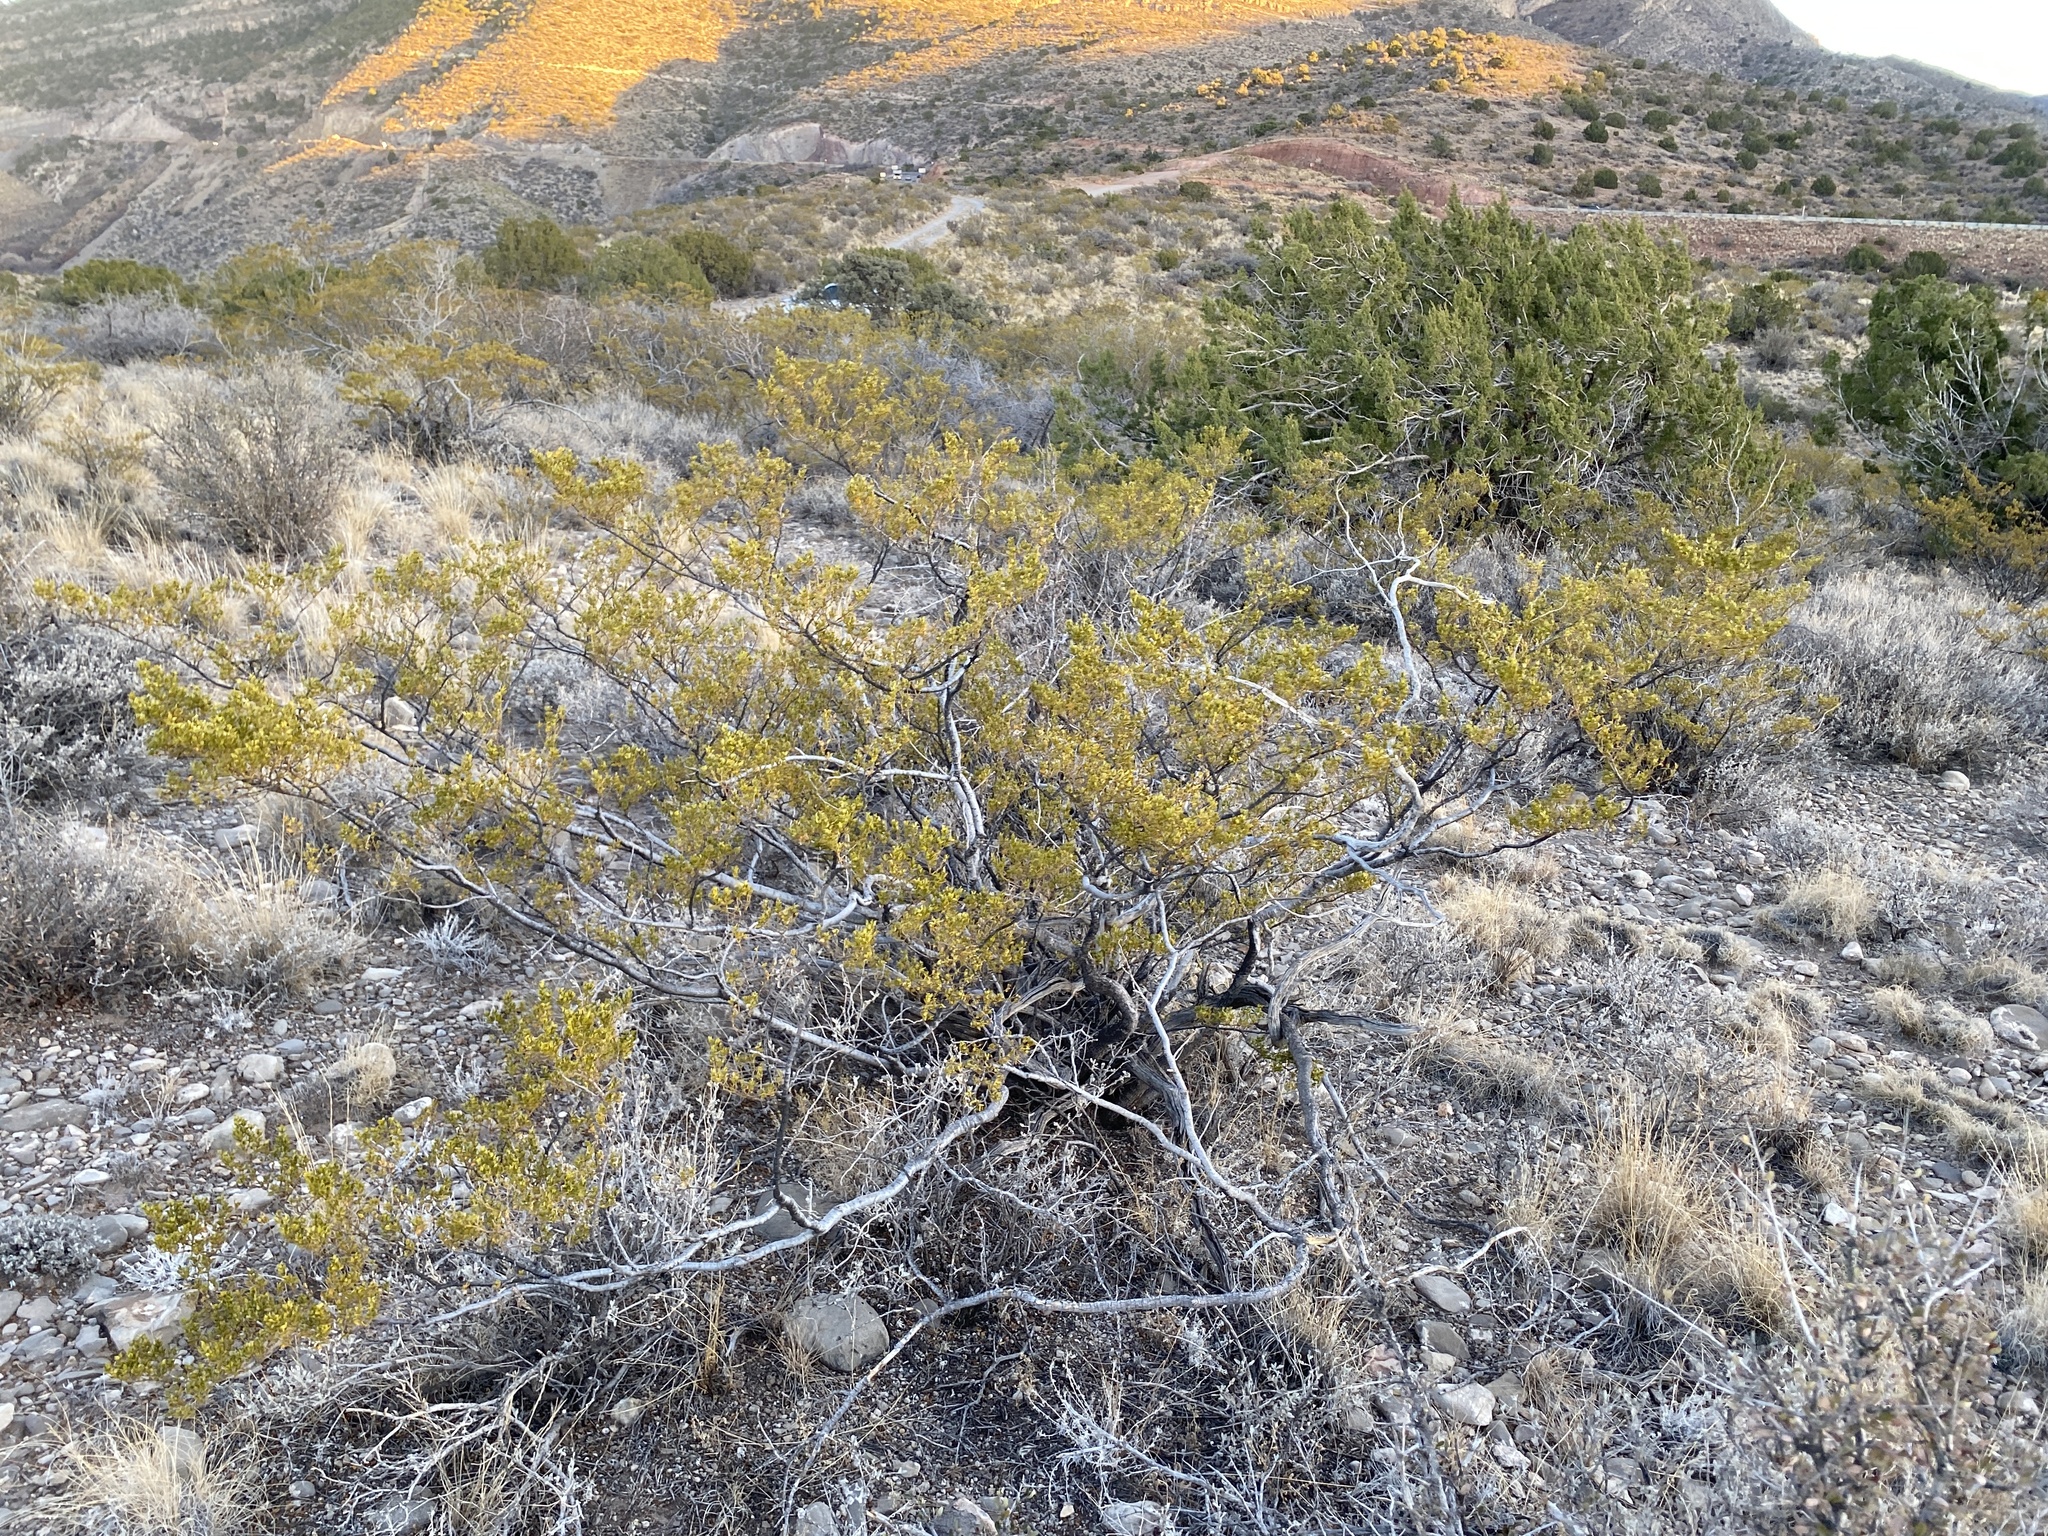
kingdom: Plantae
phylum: Tracheophyta
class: Magnoliopsida
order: Zygophyllales
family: Zygophyllaceae
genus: Larrea
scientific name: Larrea tridentata
